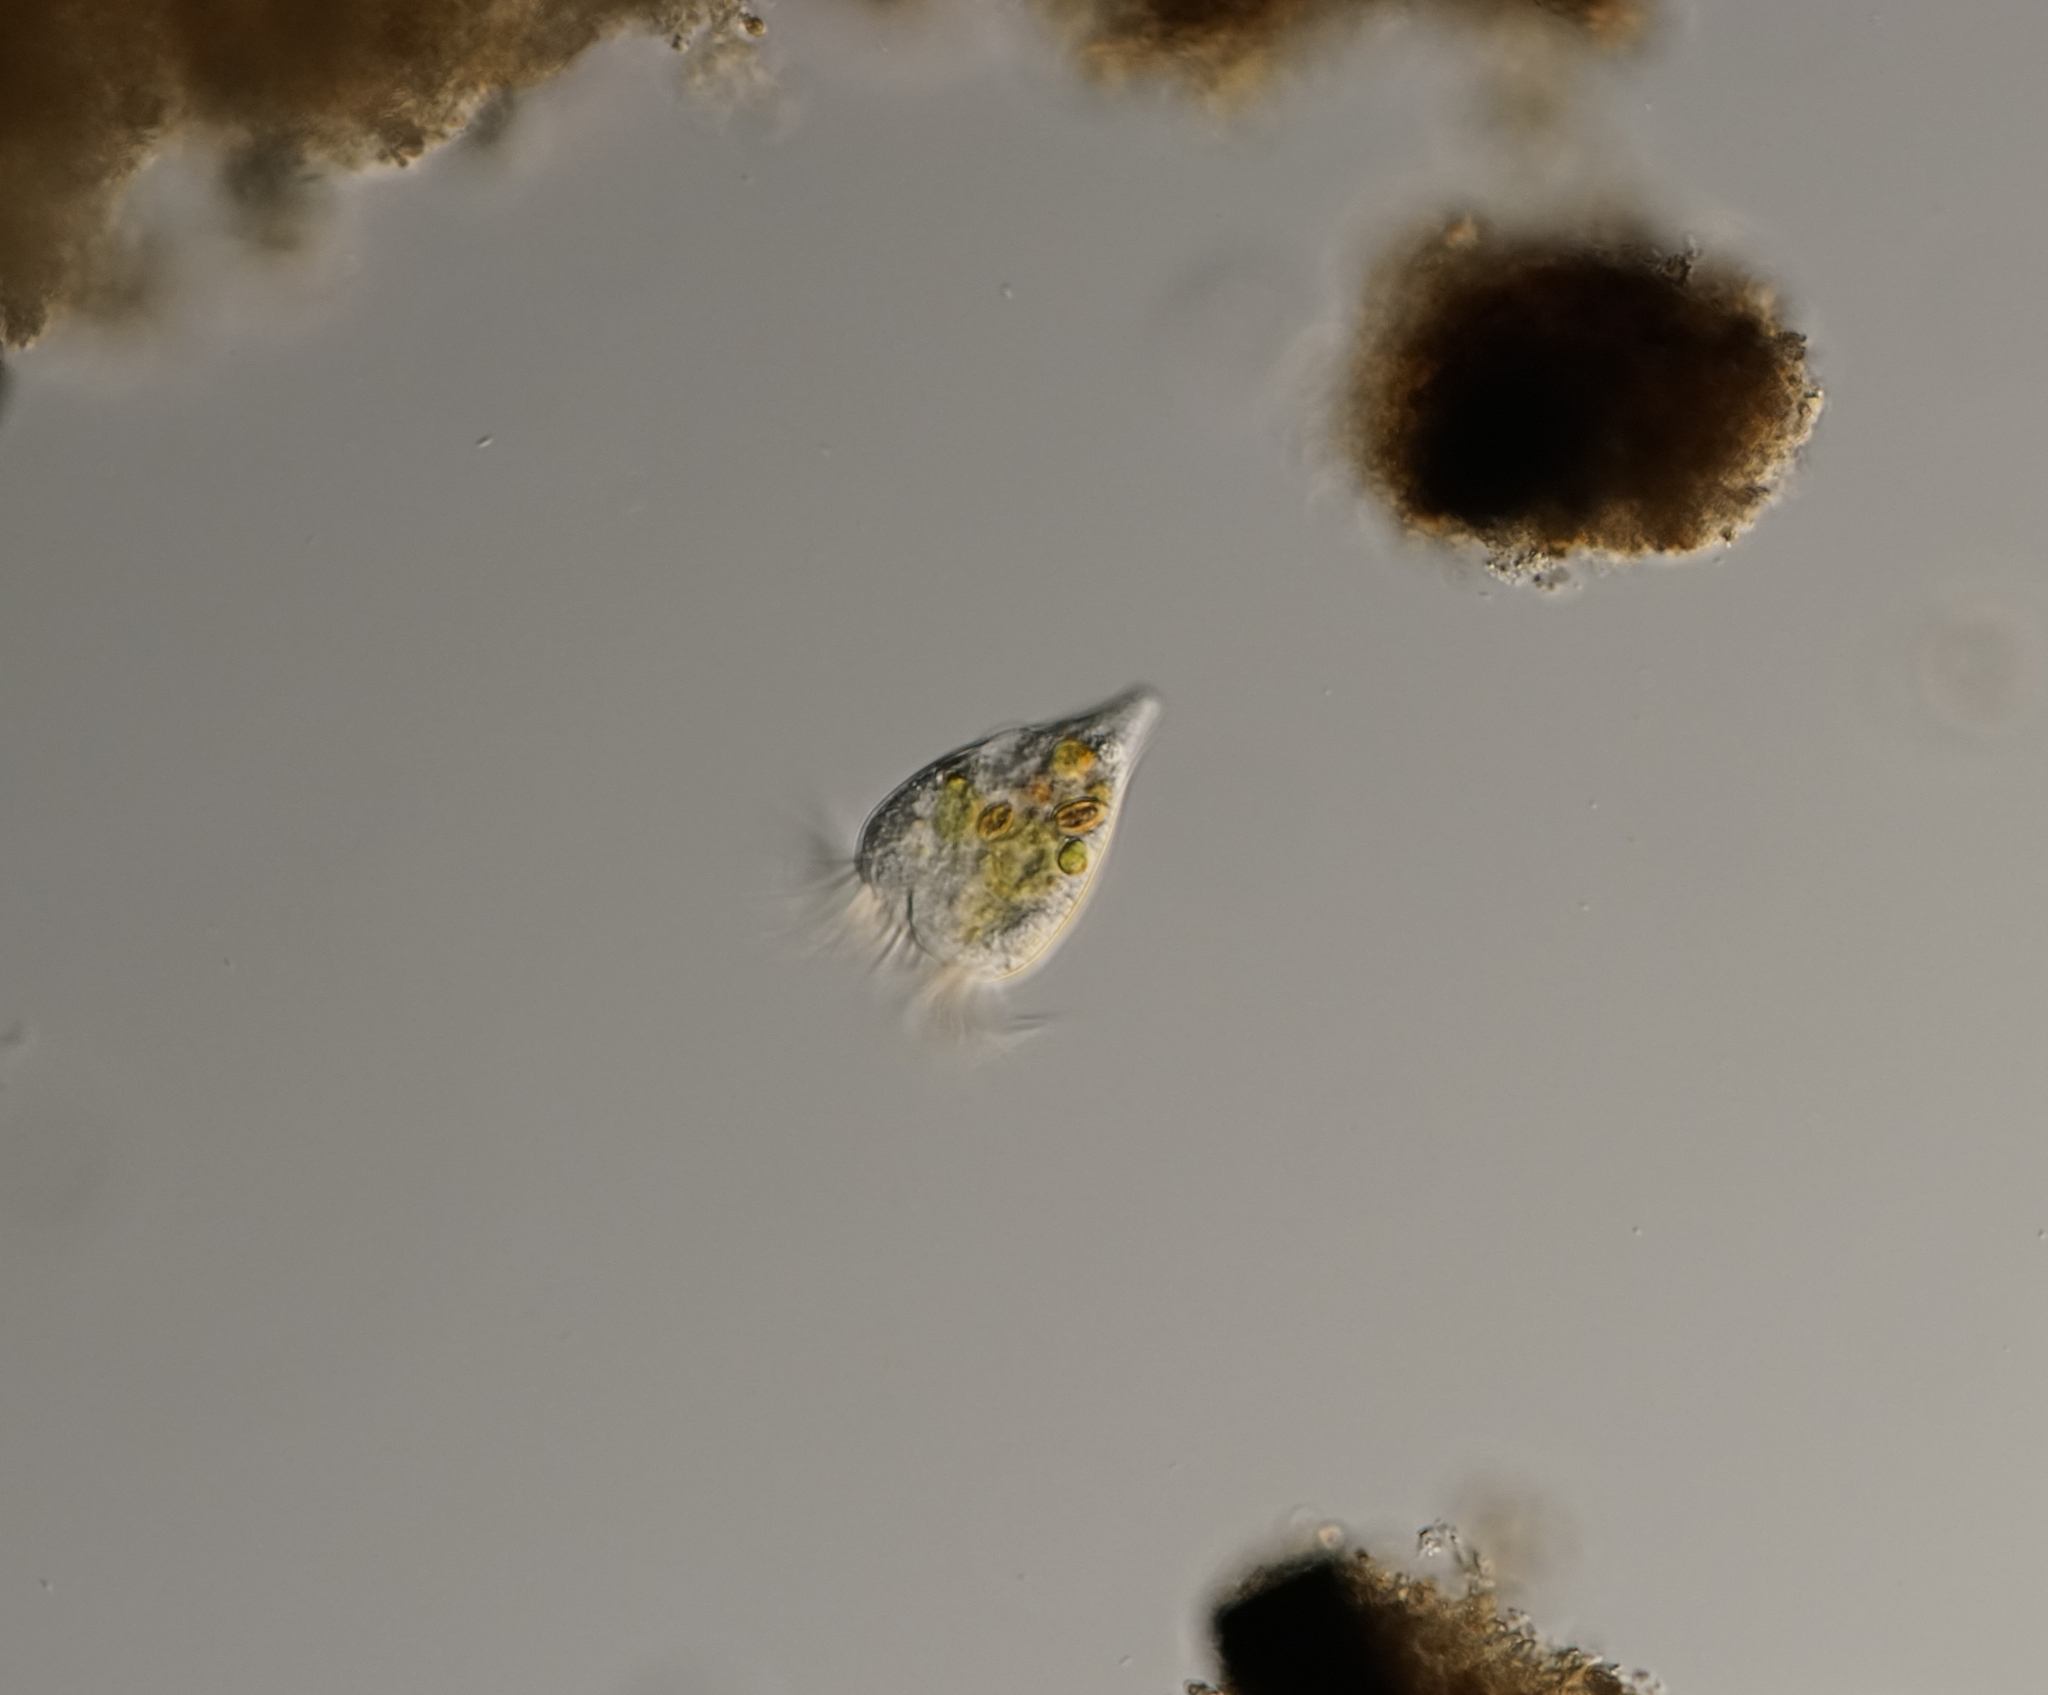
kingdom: Chromista
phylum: Ciliophora
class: Oligotrichea
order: Choreotrichida
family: Strobilidiidae
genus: Strobilidium
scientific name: Strobilidium caudatum
